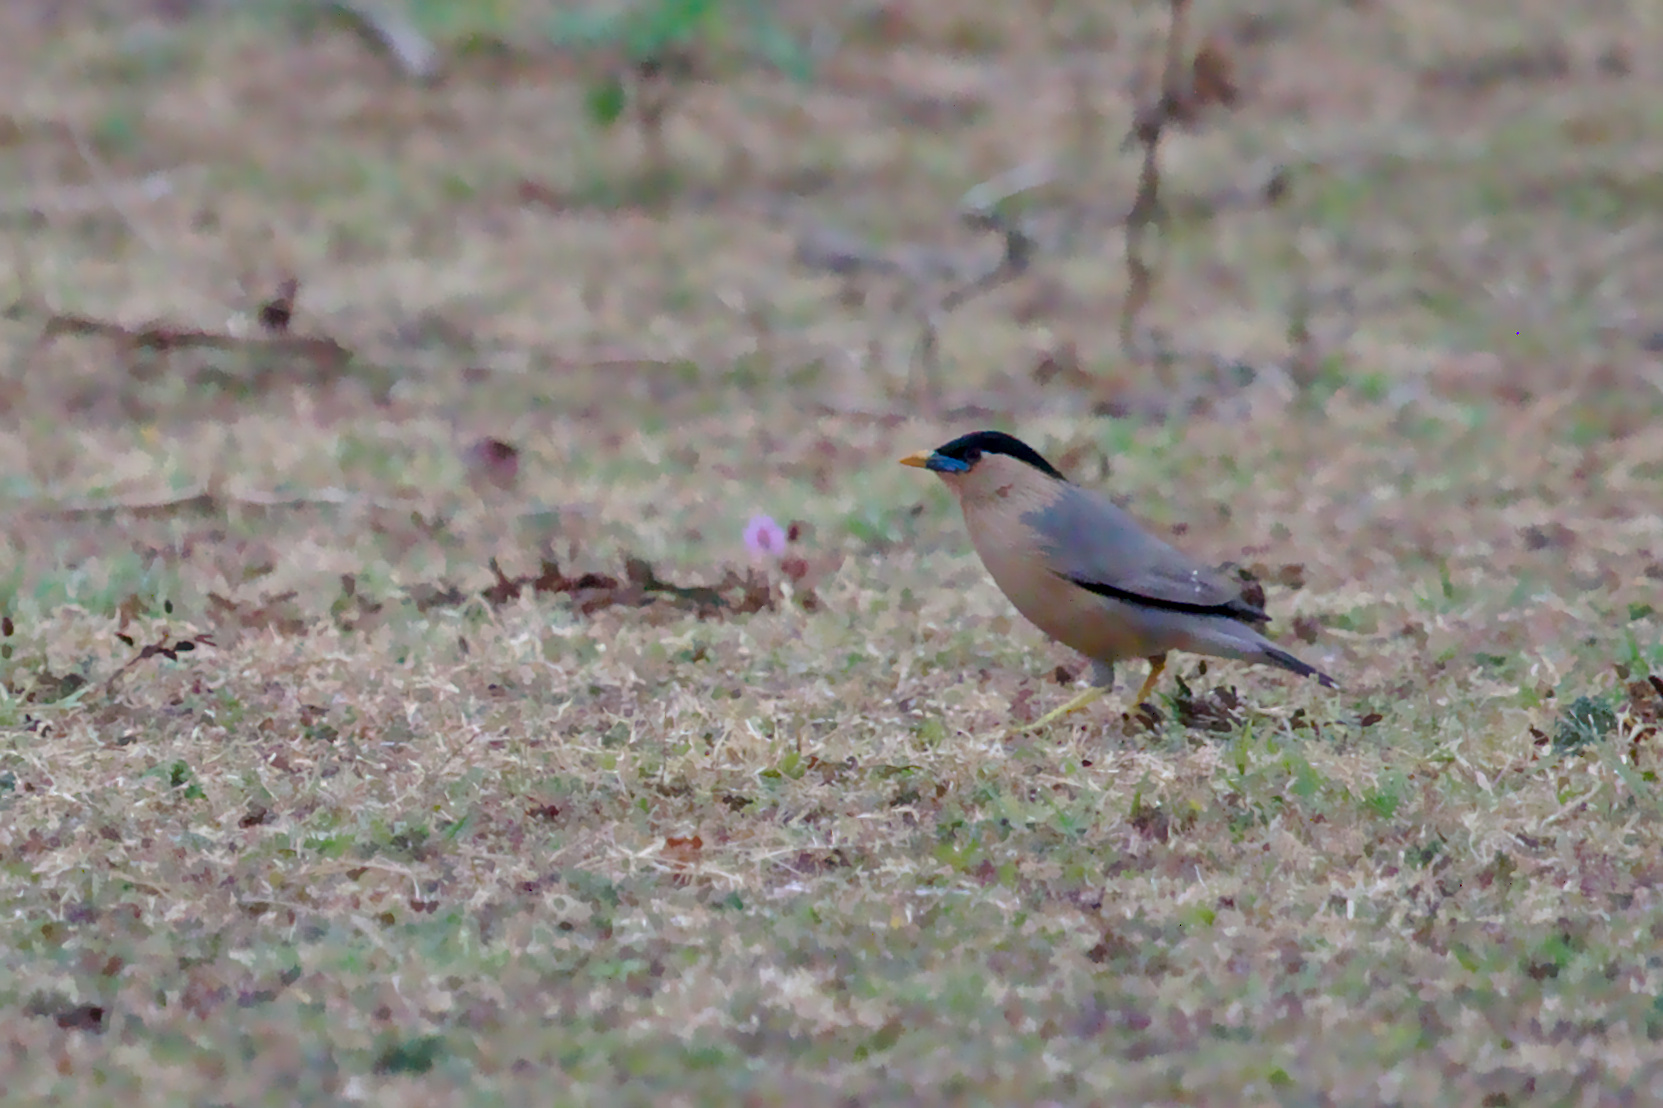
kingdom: Animalia
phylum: Chordata
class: Aves
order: Passeriformes
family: Sturnidae
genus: Sturnia
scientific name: Sturnia pagodarum
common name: Brahminy starling
